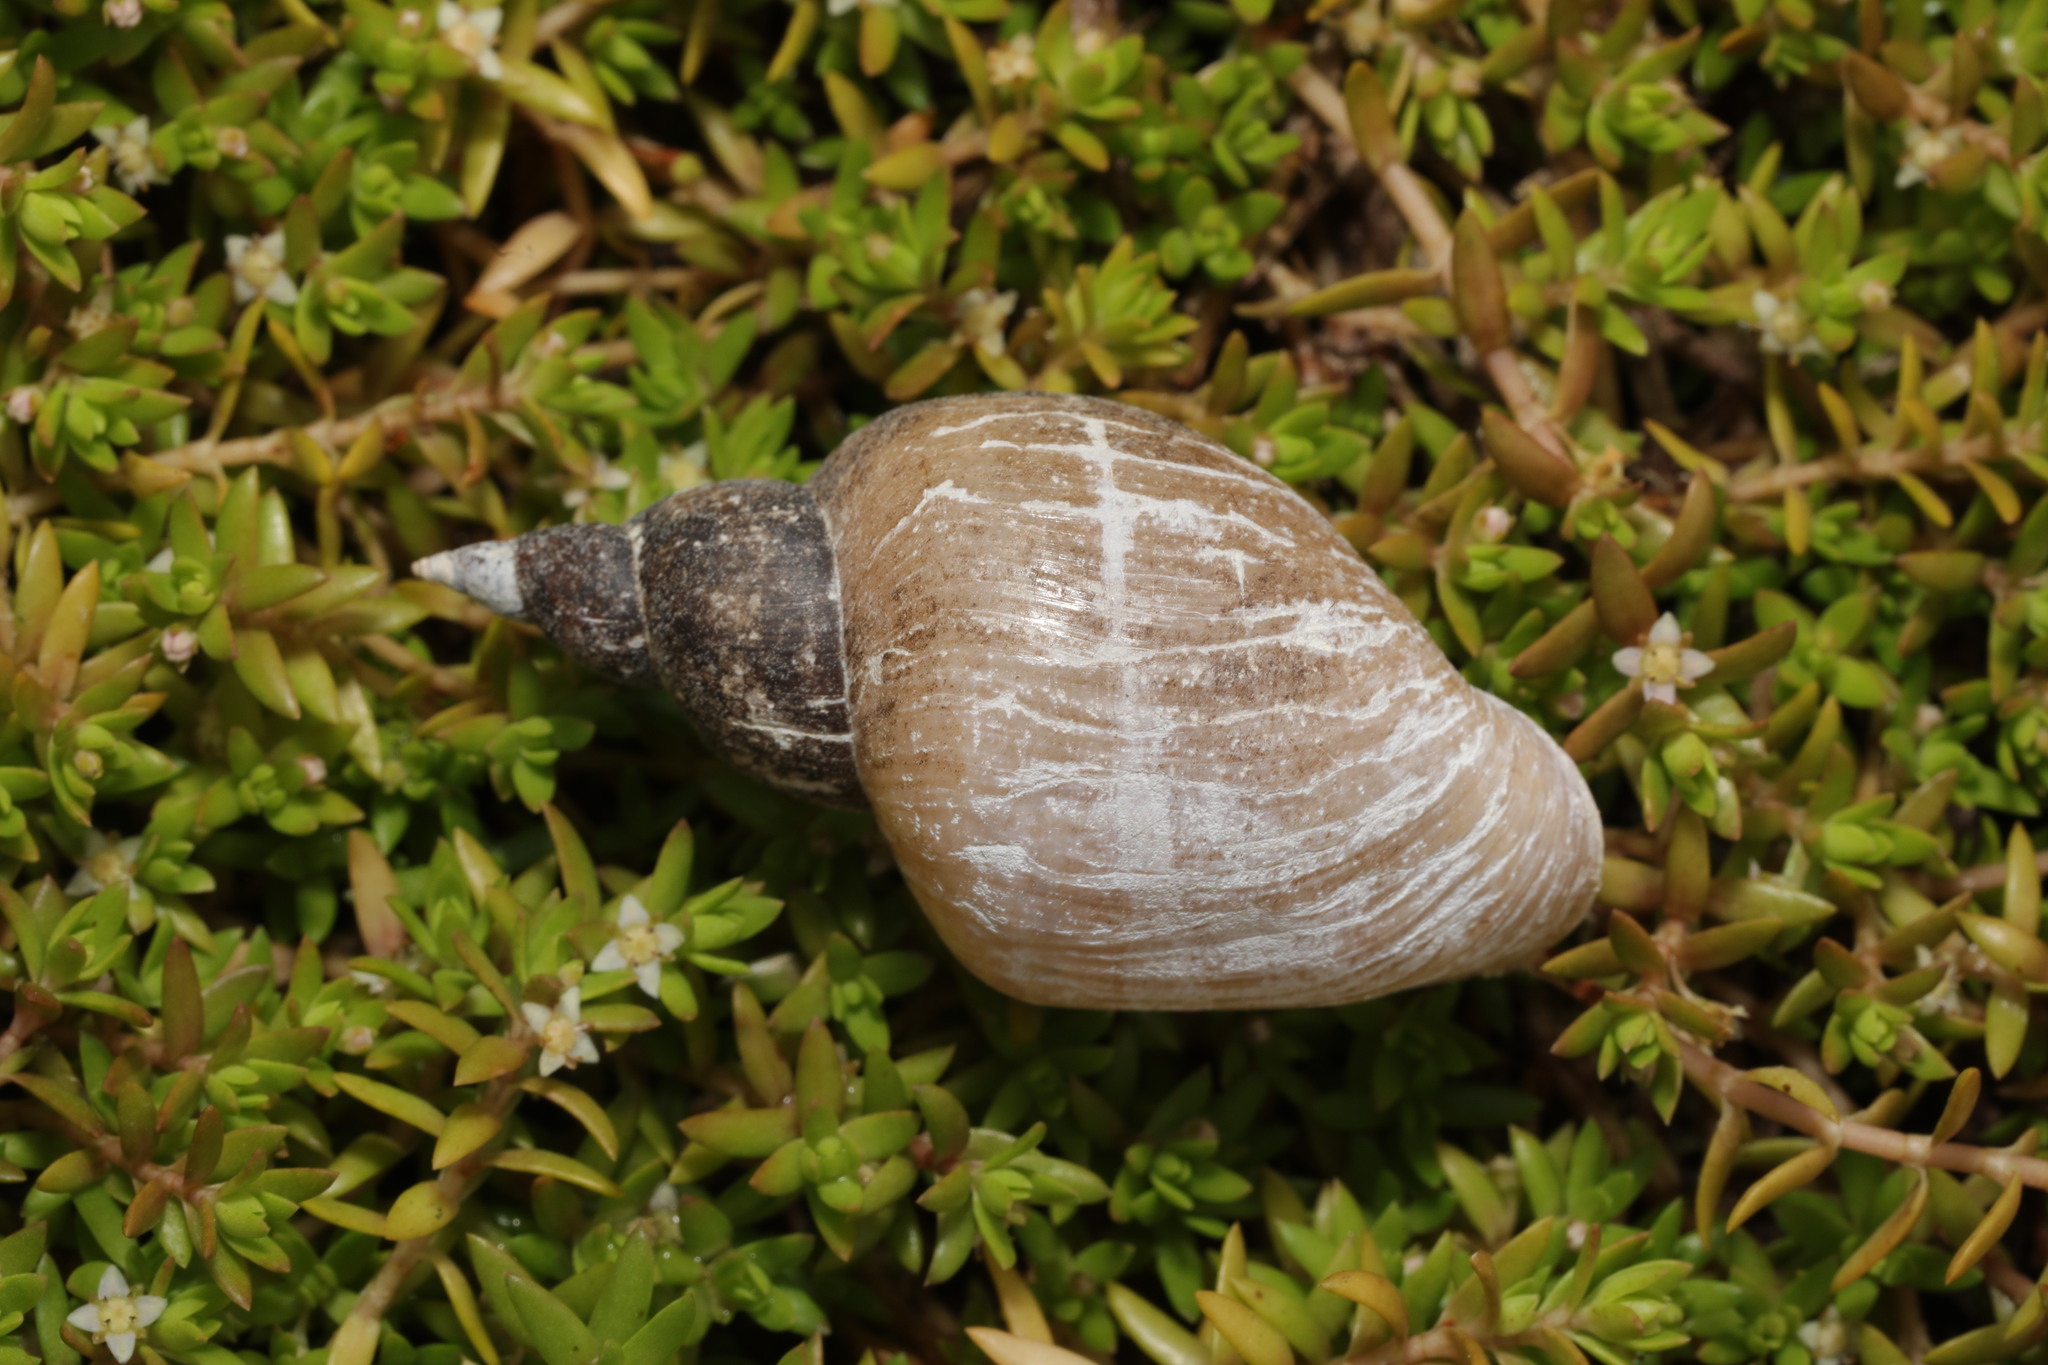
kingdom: Animalia
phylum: Mollusca
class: Gastropoda
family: Lymnaeidae
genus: Lymnaea
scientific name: Lymnaea stagnalis
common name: Great pond snail
